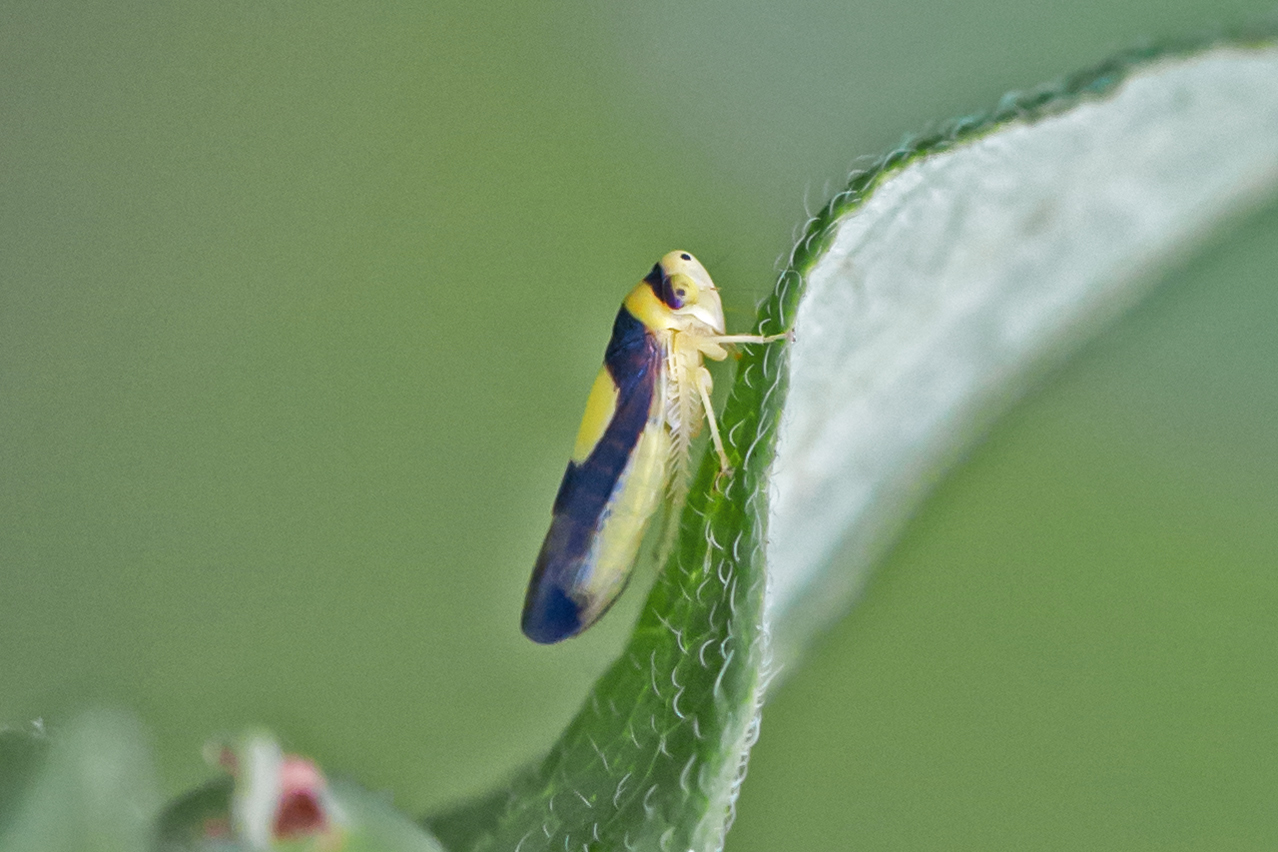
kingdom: Animalia
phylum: Arthropoda
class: Insecta
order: Hemiptera
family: Cicadellidae
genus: Colladonus
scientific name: Colladonus clitellarius
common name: The saddleback leafhopper
